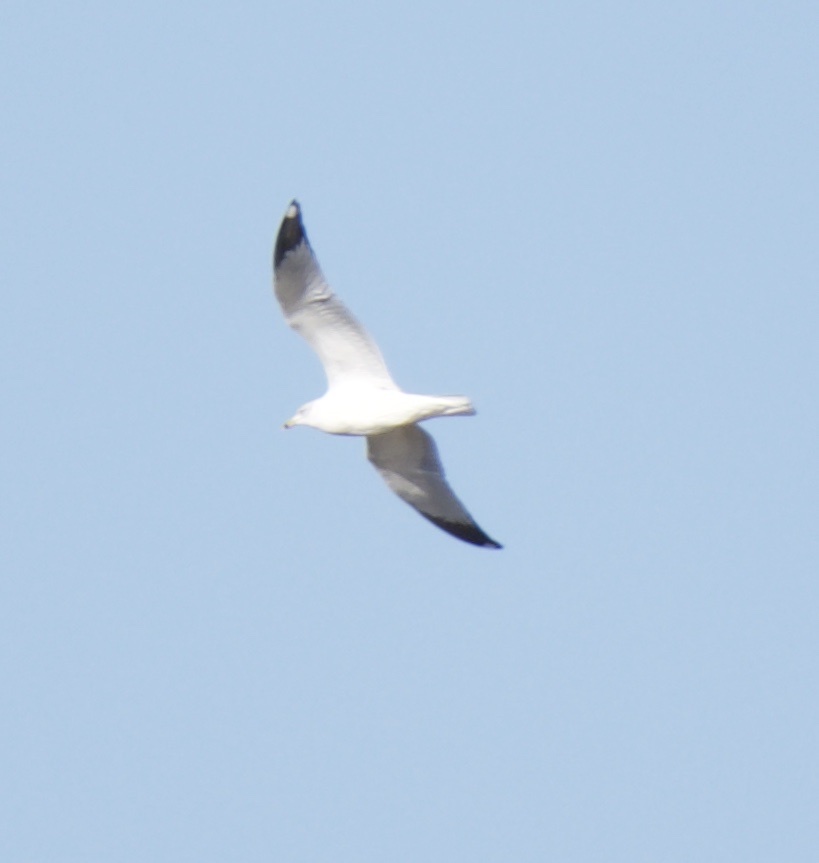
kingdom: Animalia
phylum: Chordata
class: Aves
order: Charadriiformes
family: Laridae
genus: Larus
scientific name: Larus delawarensis
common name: Ring-billed gull
